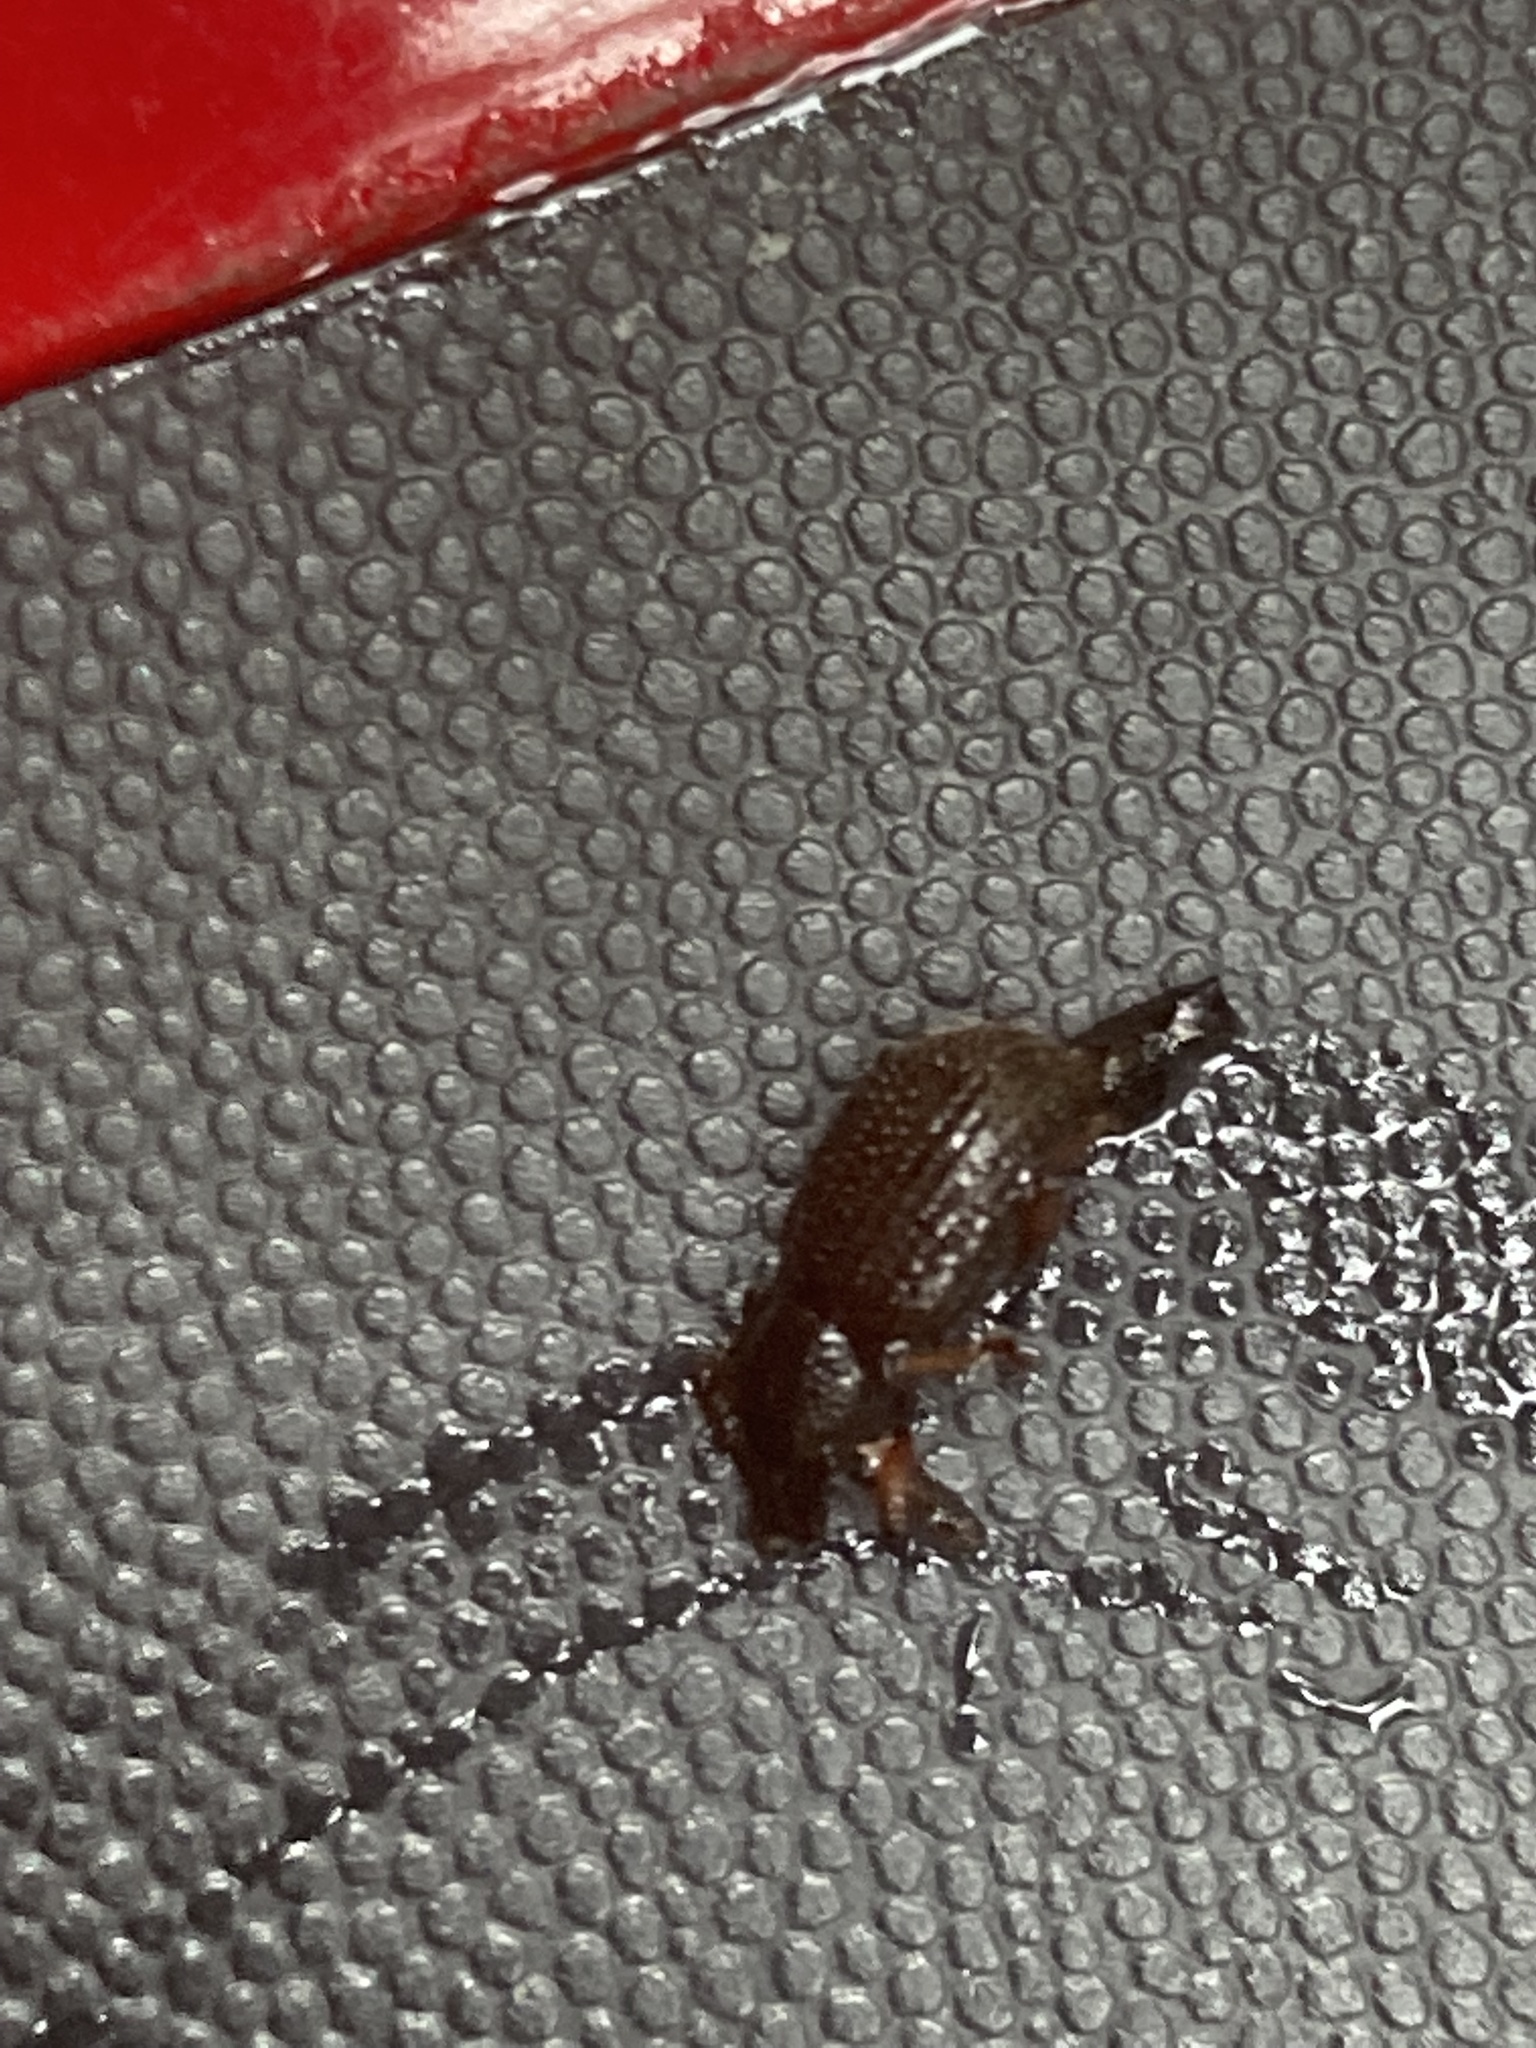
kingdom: Animalia
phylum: Arthropoda
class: Insecta
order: Coleoptera
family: Curculionidae
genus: Otiorhynchus
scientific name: Otiorhynchus rugosostriatus
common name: Weevil
